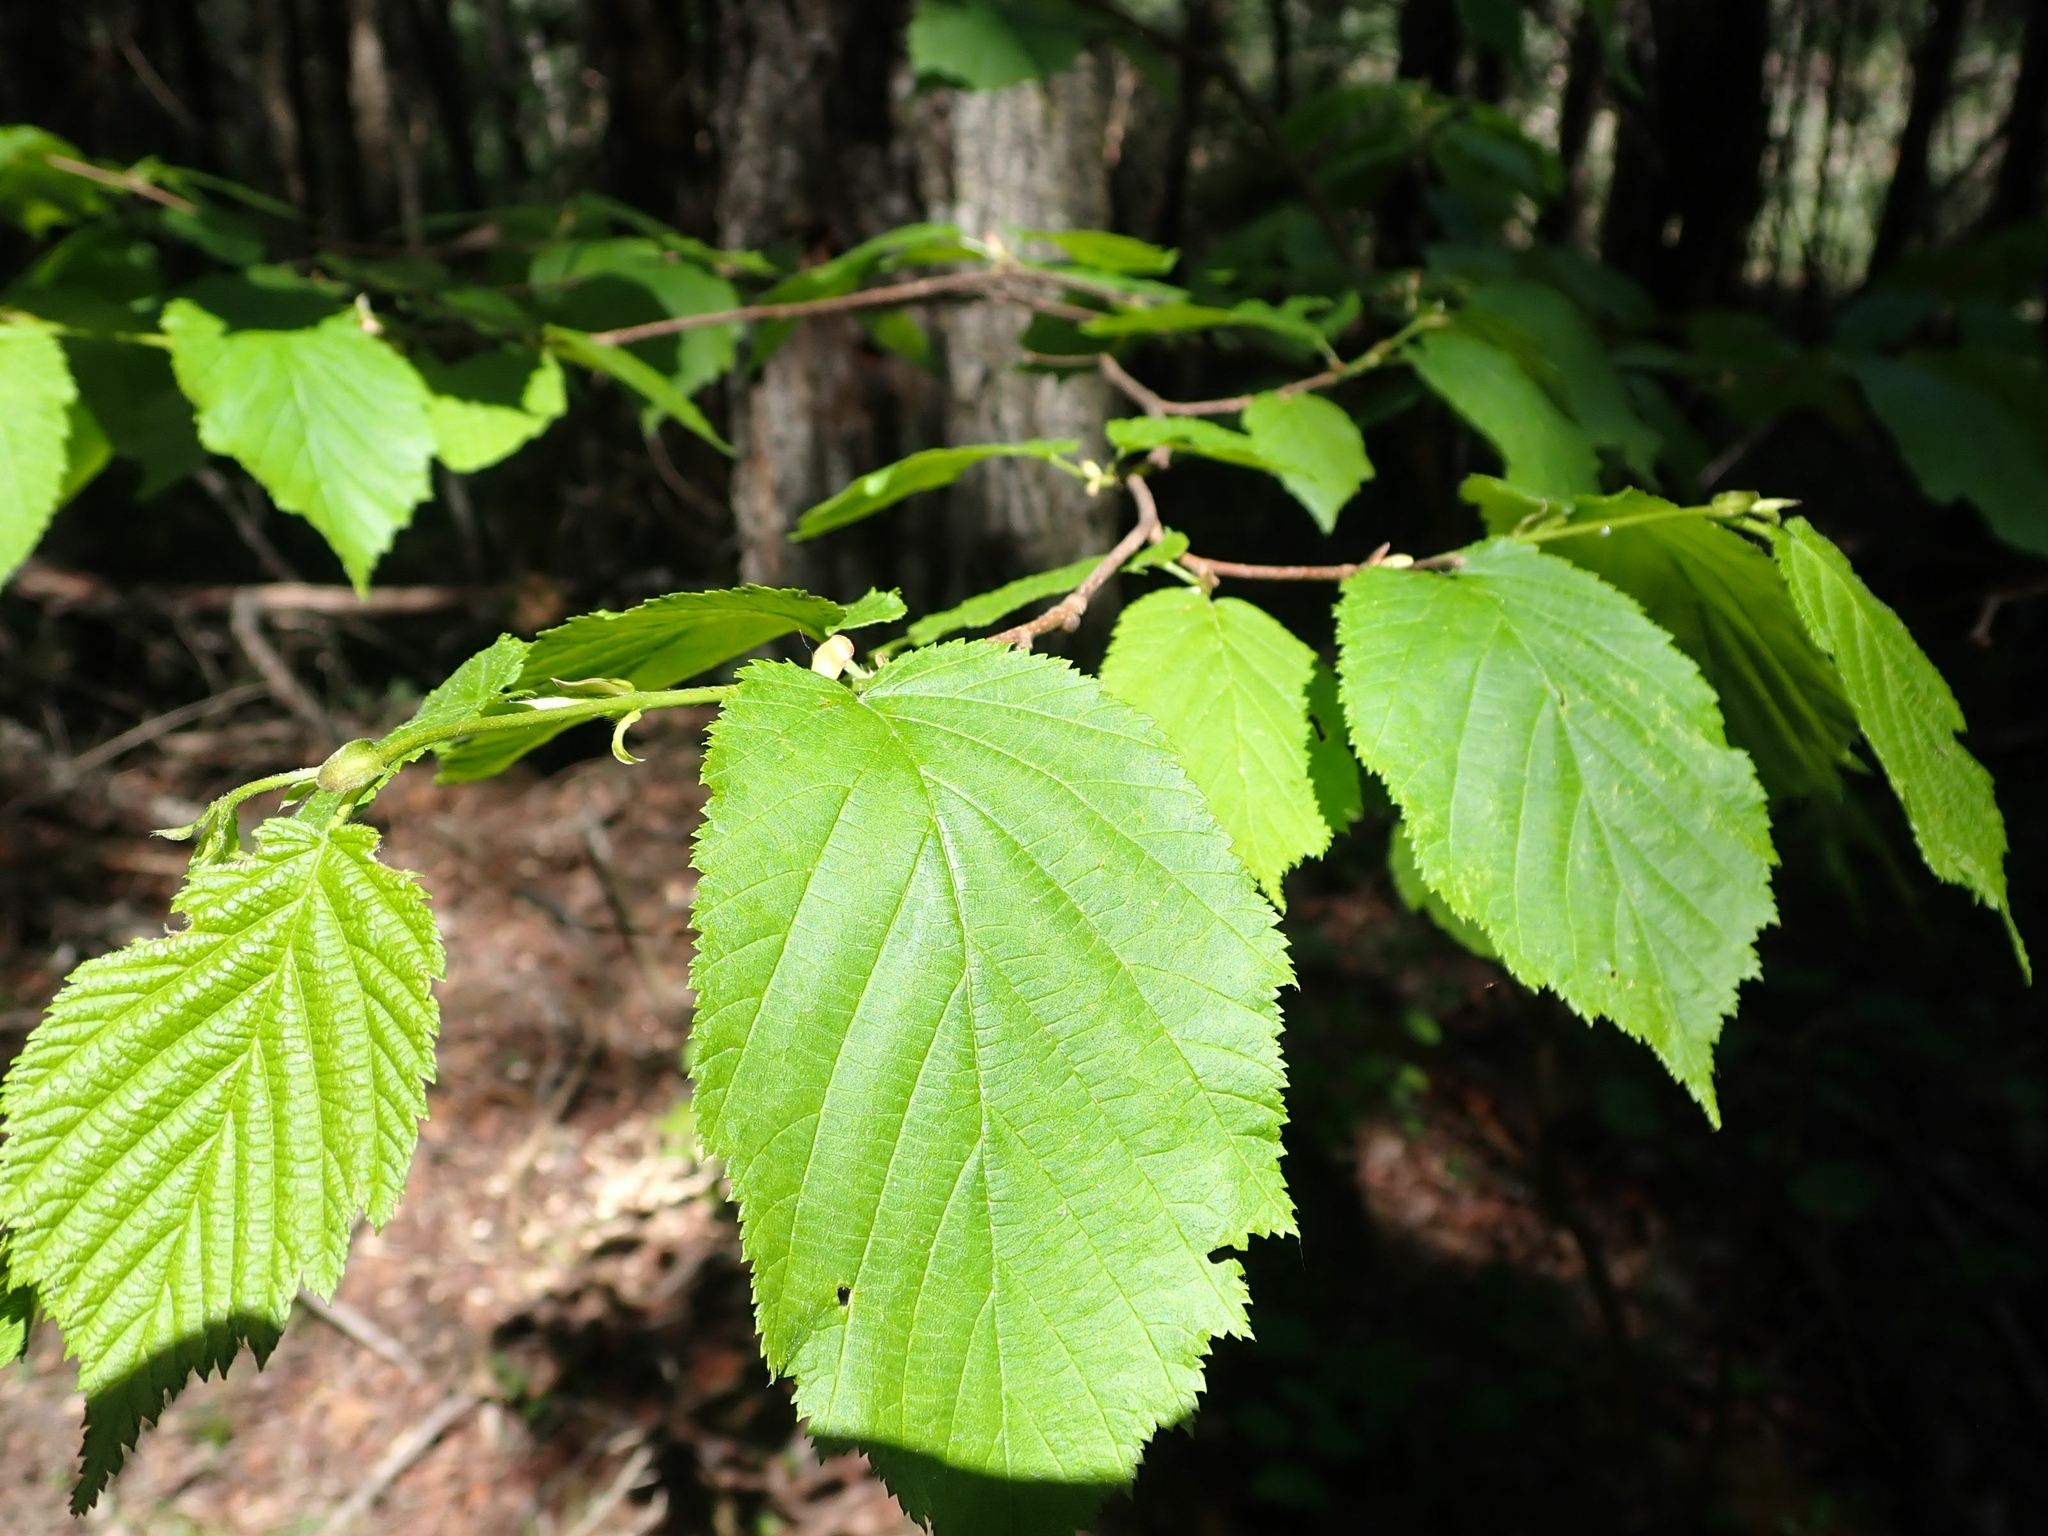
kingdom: Plantae
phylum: Tracheophyta
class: Magnoliopsida
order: Fagales
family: Betulaceae
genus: Corylus
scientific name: Corylus cornuta
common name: Beaked hazel
